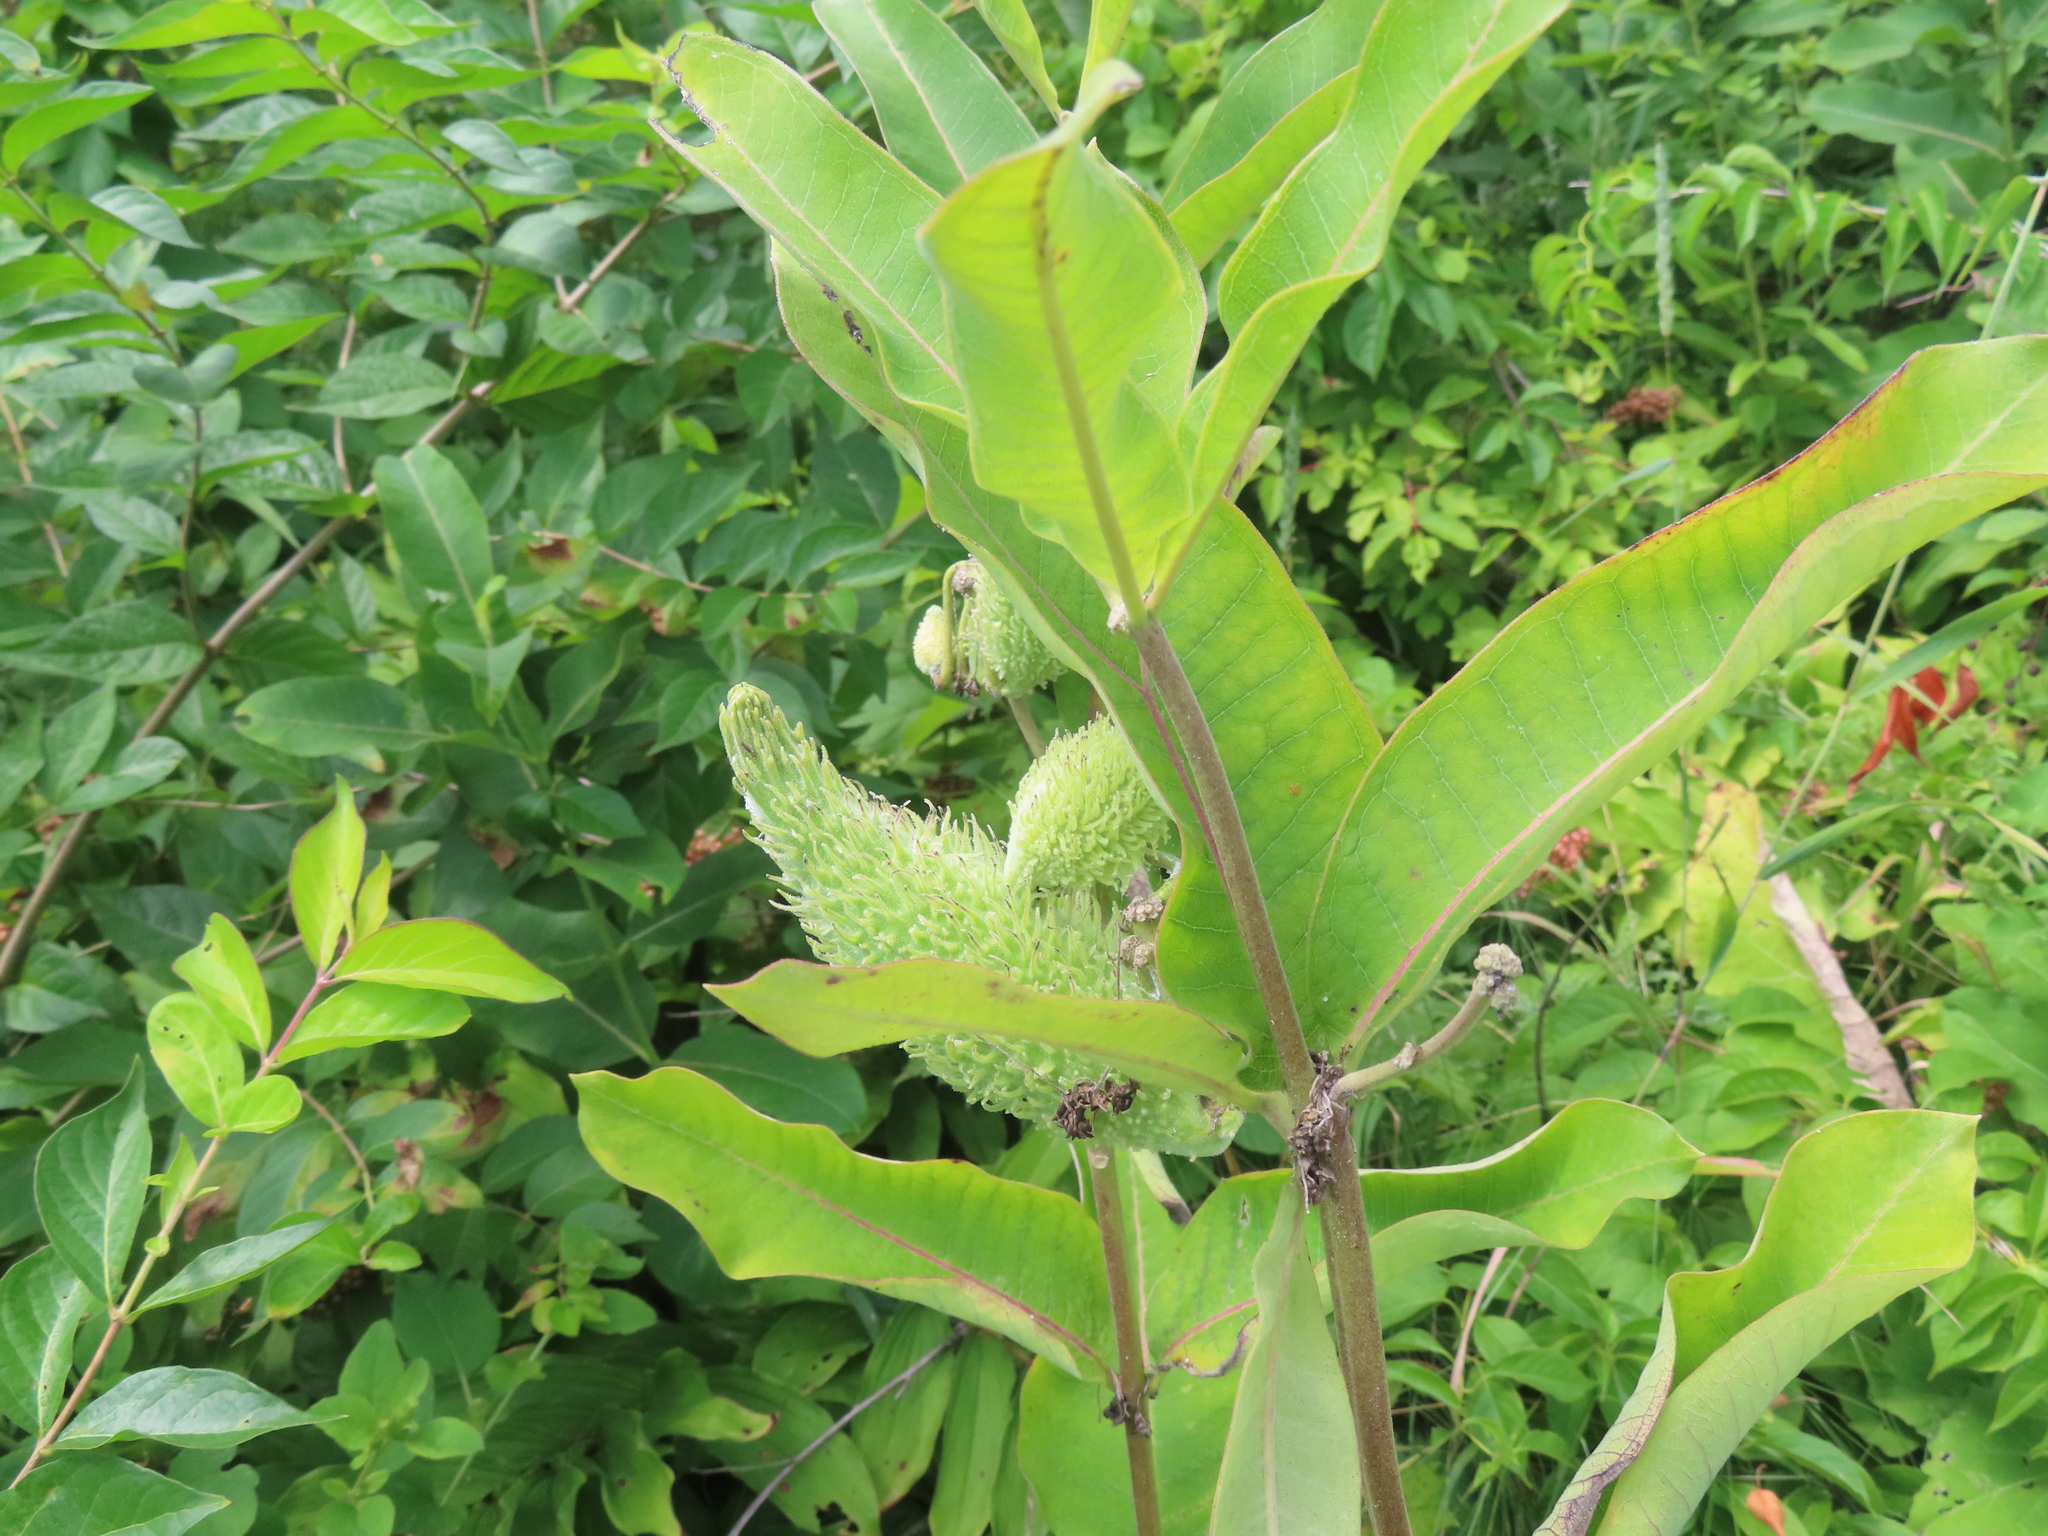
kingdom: Plantae
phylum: Tracheophyta
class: Magnoliopsida
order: Gentianales
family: Apocynaceae
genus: Asclepias
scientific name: Asclepias syriaca
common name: Common milkweed
